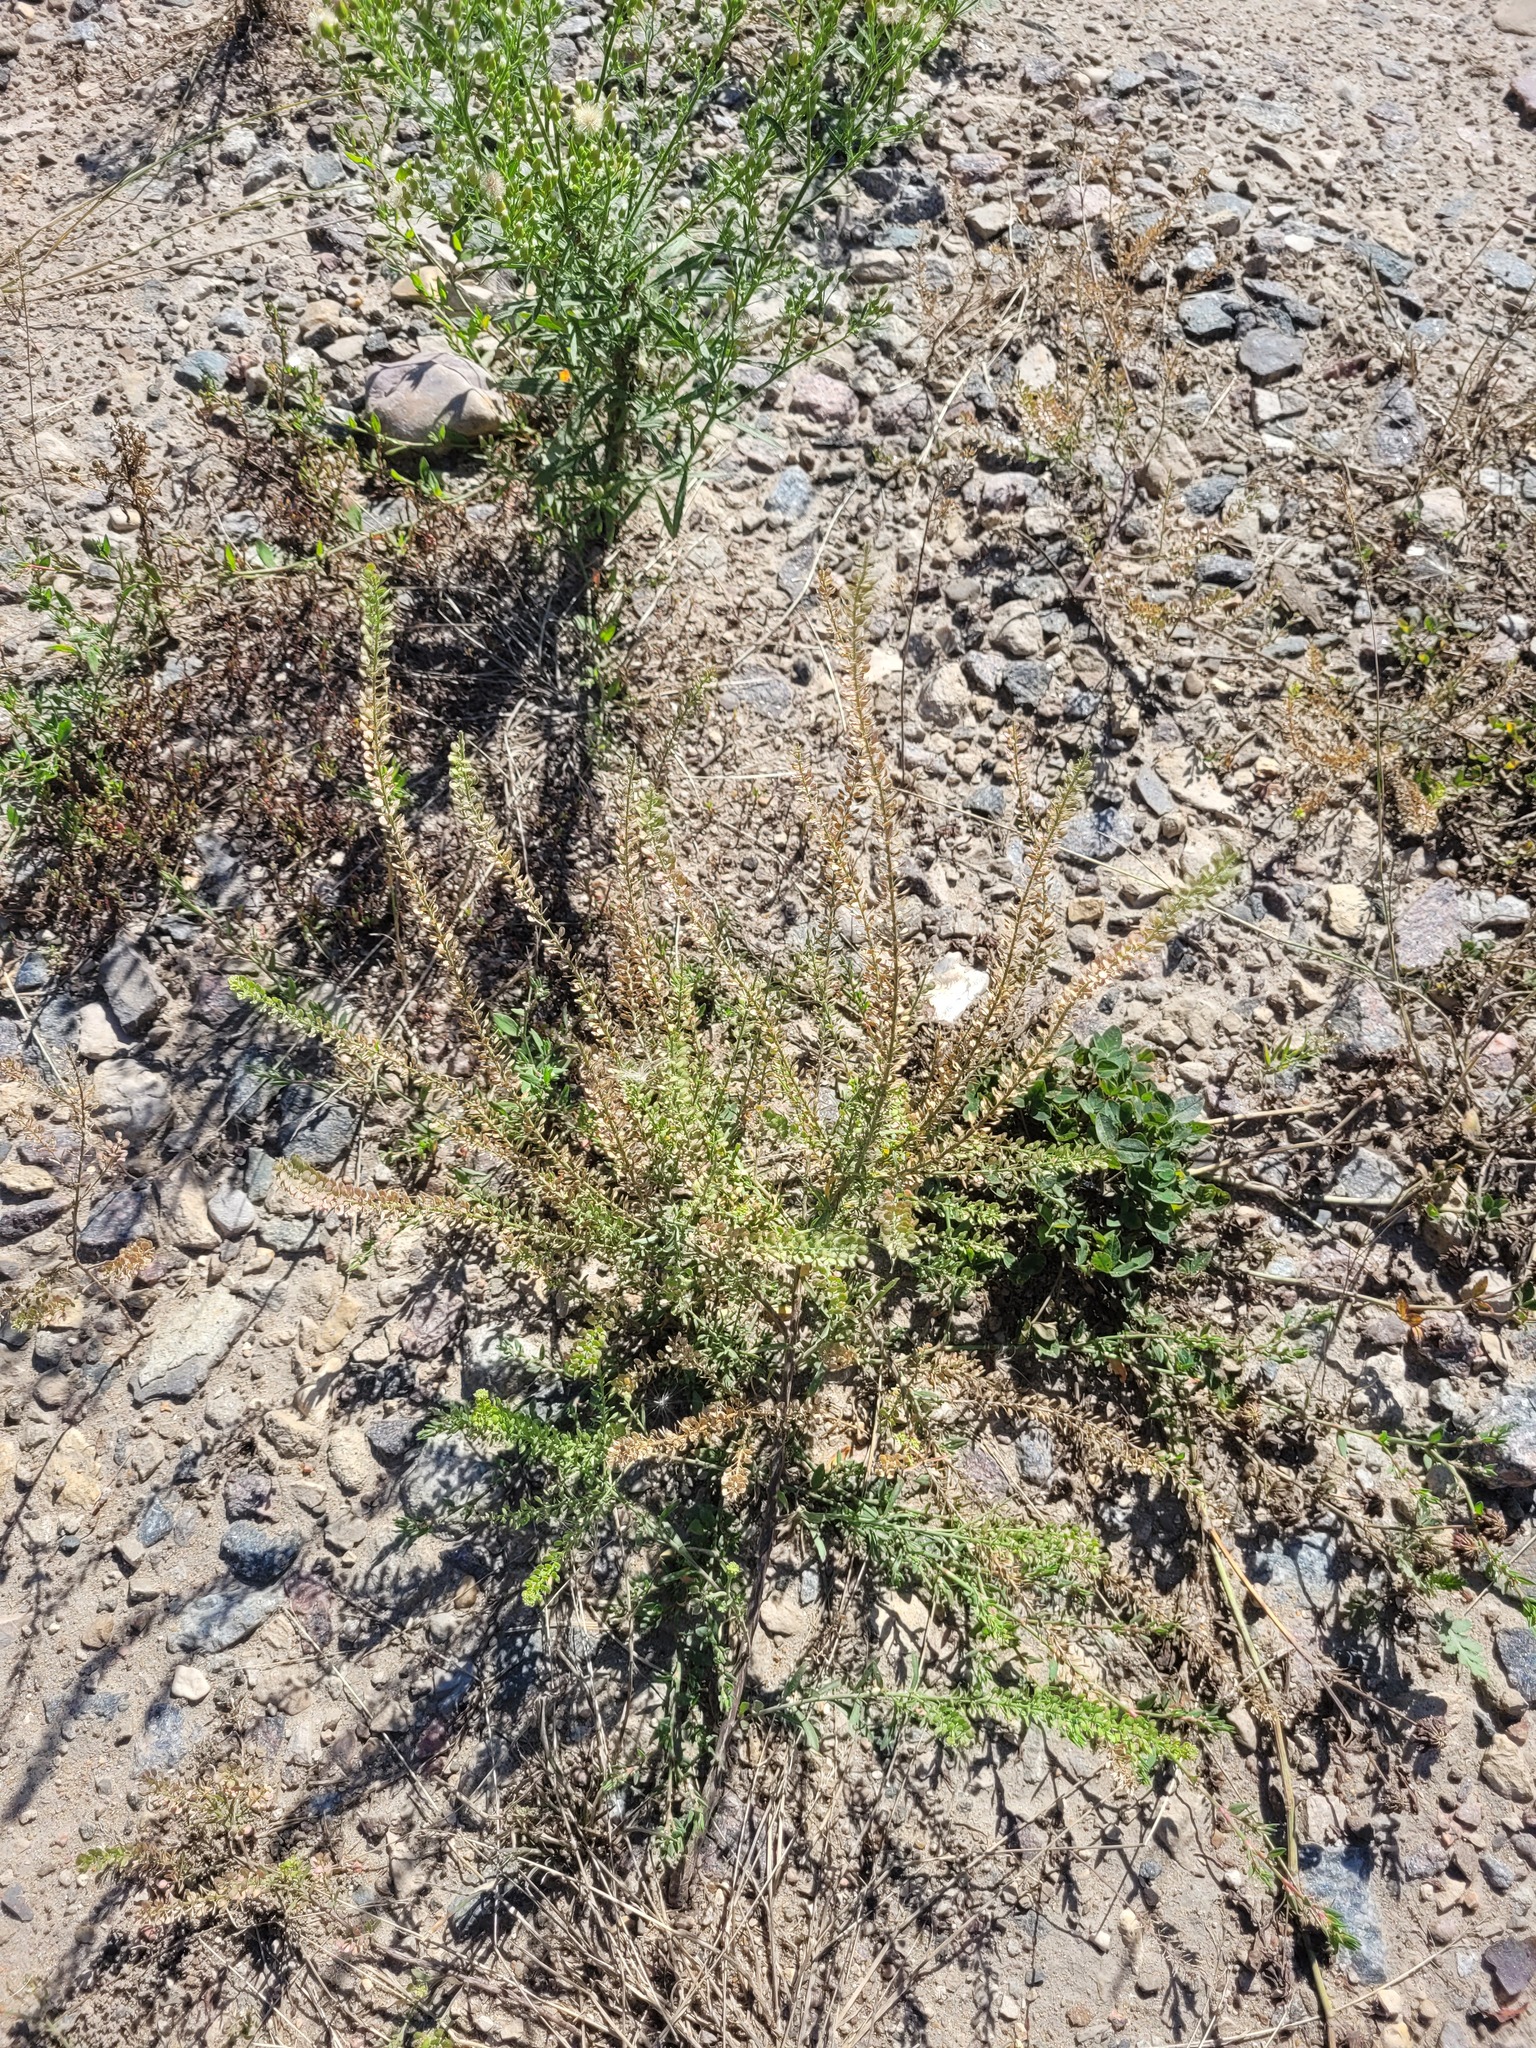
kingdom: Plantae
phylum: Tracheophyta
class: Magnoliopsida
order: Brassicales
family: Brassicaceae
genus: Lepidium
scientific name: Lepidium densiflorum
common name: Miner's pepperwort
